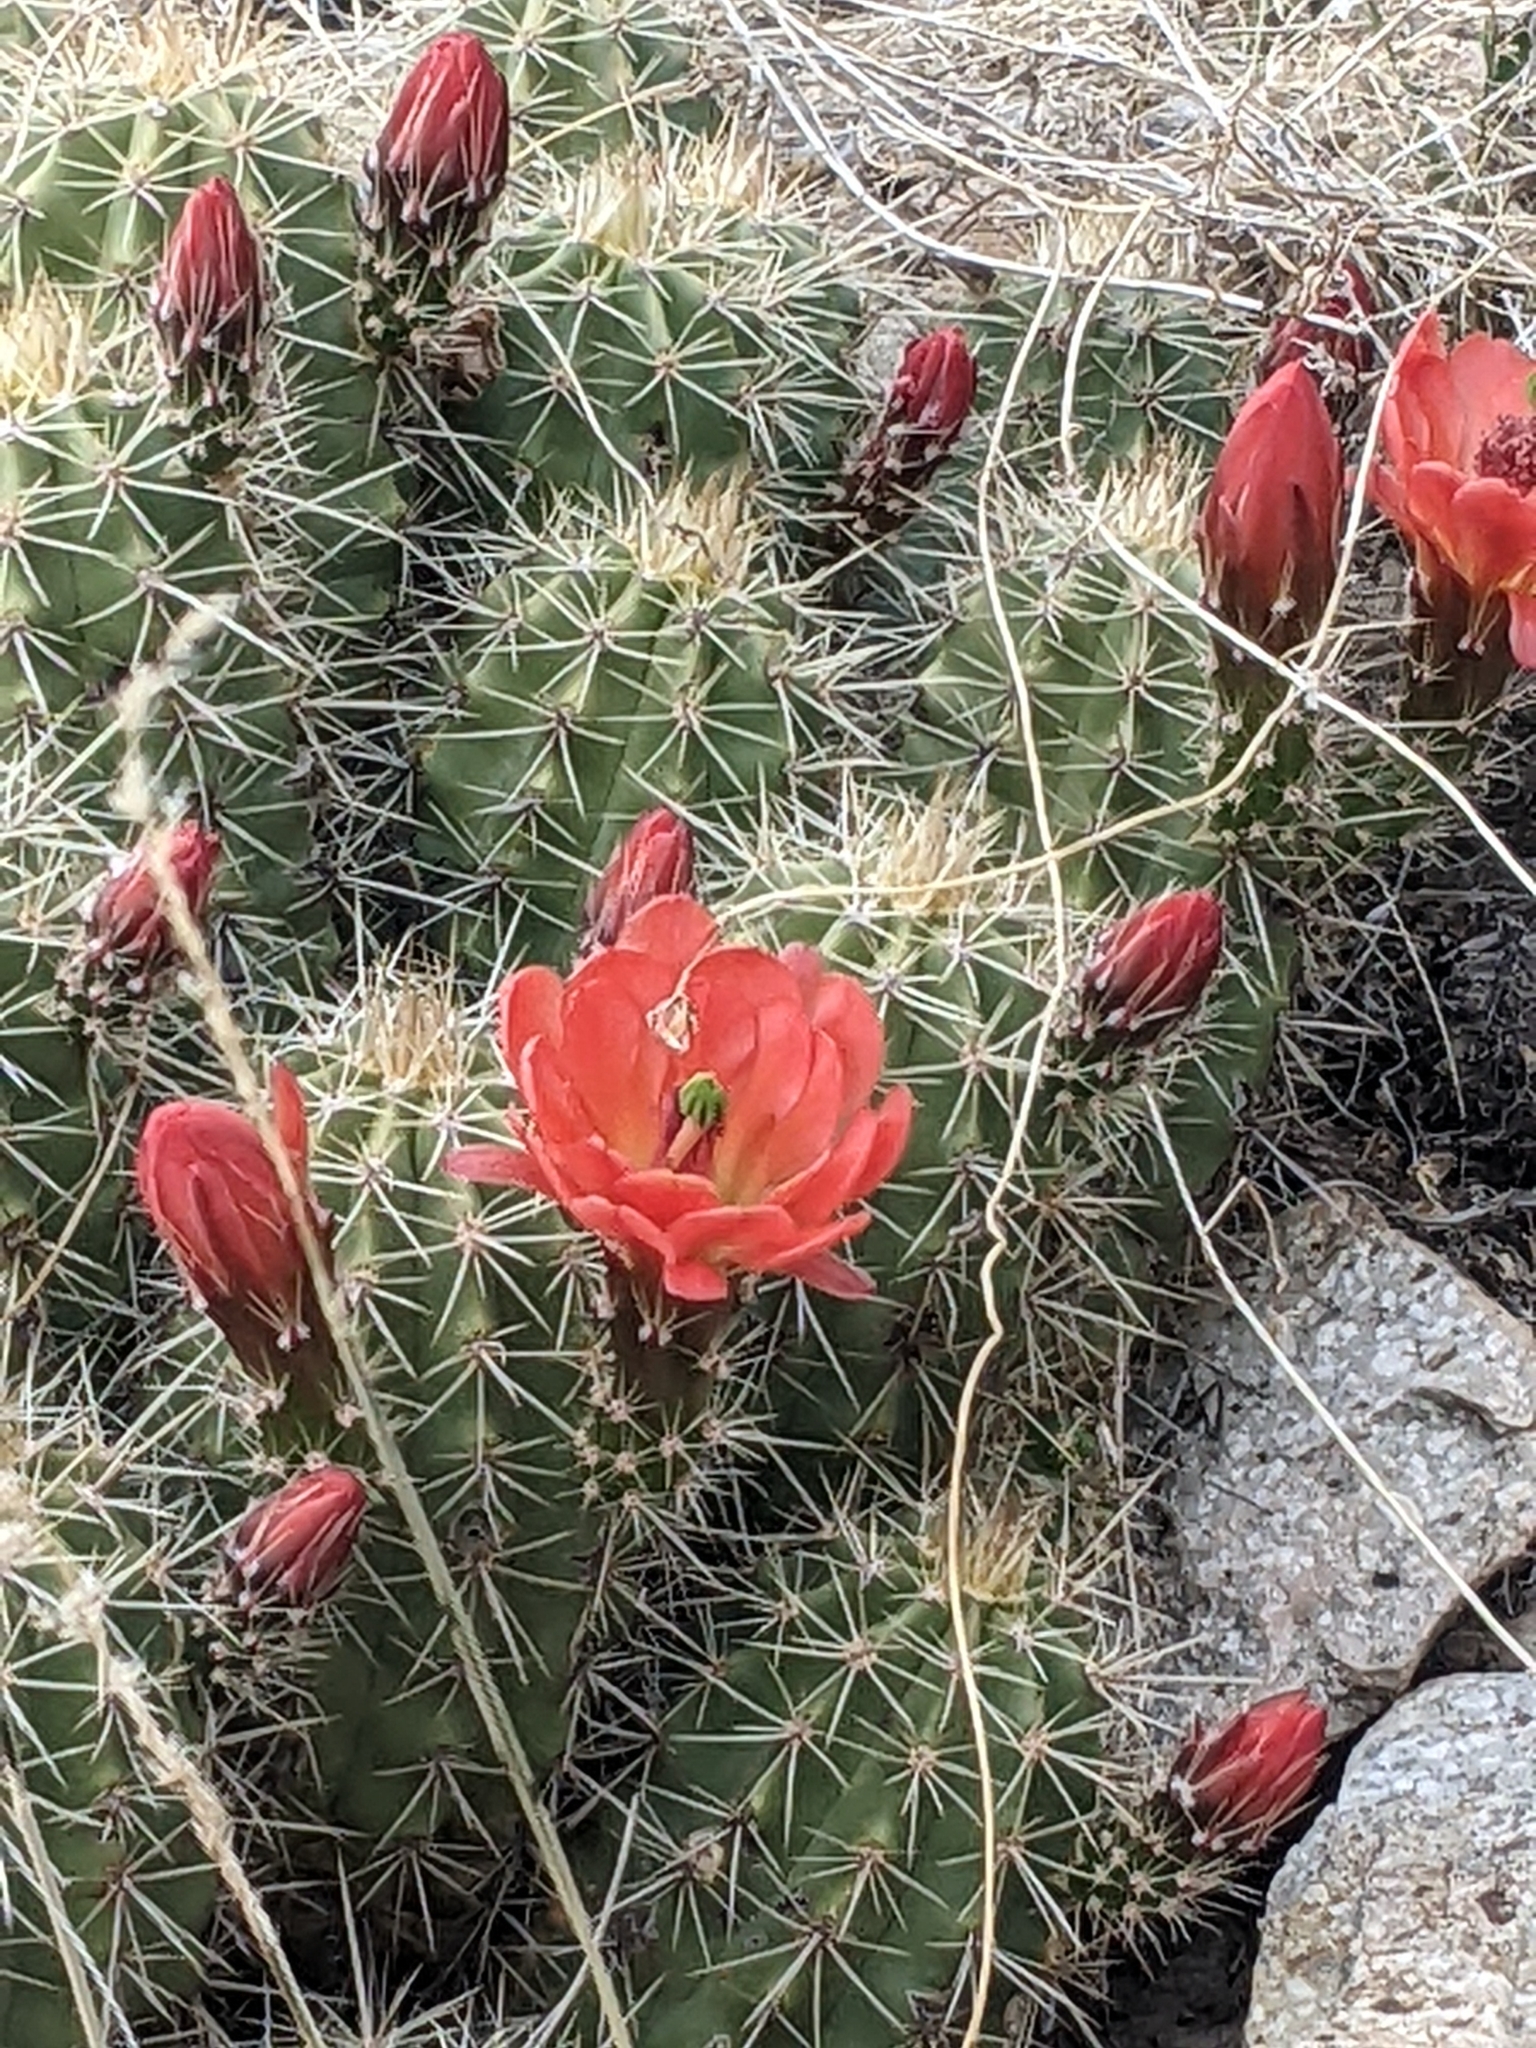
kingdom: Plantae
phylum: Tracheophyta
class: Magnoliopsida
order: Caryophyllales
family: Cactaceae
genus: Echinocereus
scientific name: Echinocereus coccineus
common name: Scarlet hedgehog cactus
